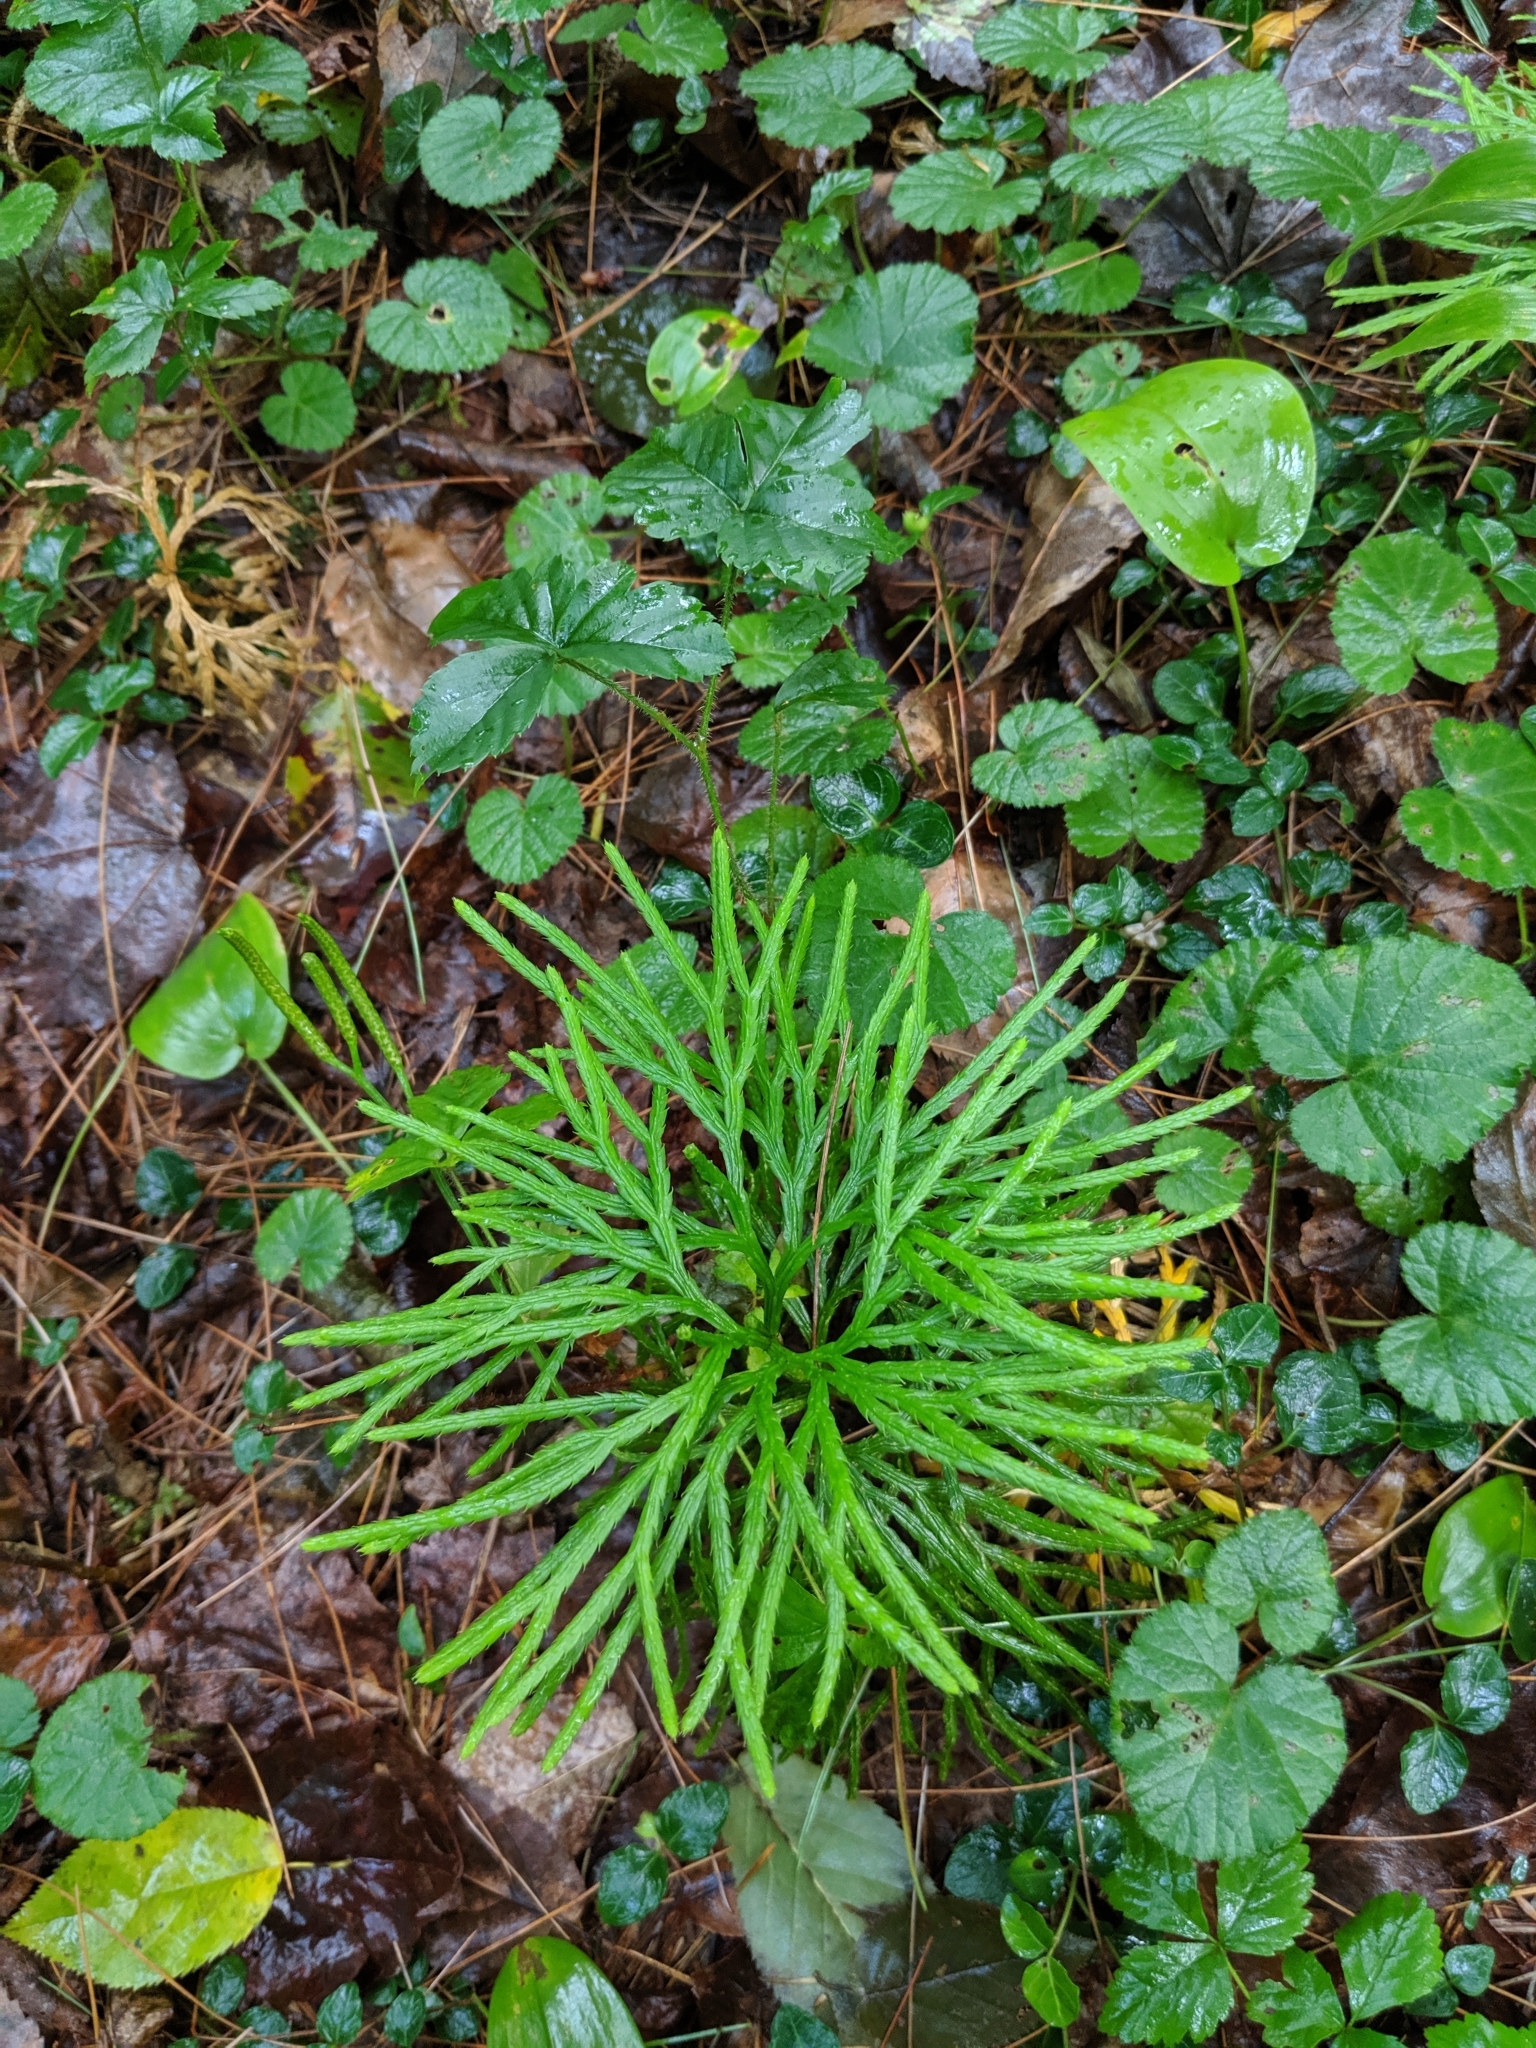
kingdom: Plantae
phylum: Tracheophyta
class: Lycopodiopsida
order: Lycopodiales
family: Lycopodiaceae
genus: Diphasiastrum
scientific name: Diphasiastrum digitatum
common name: Southern running-pine
